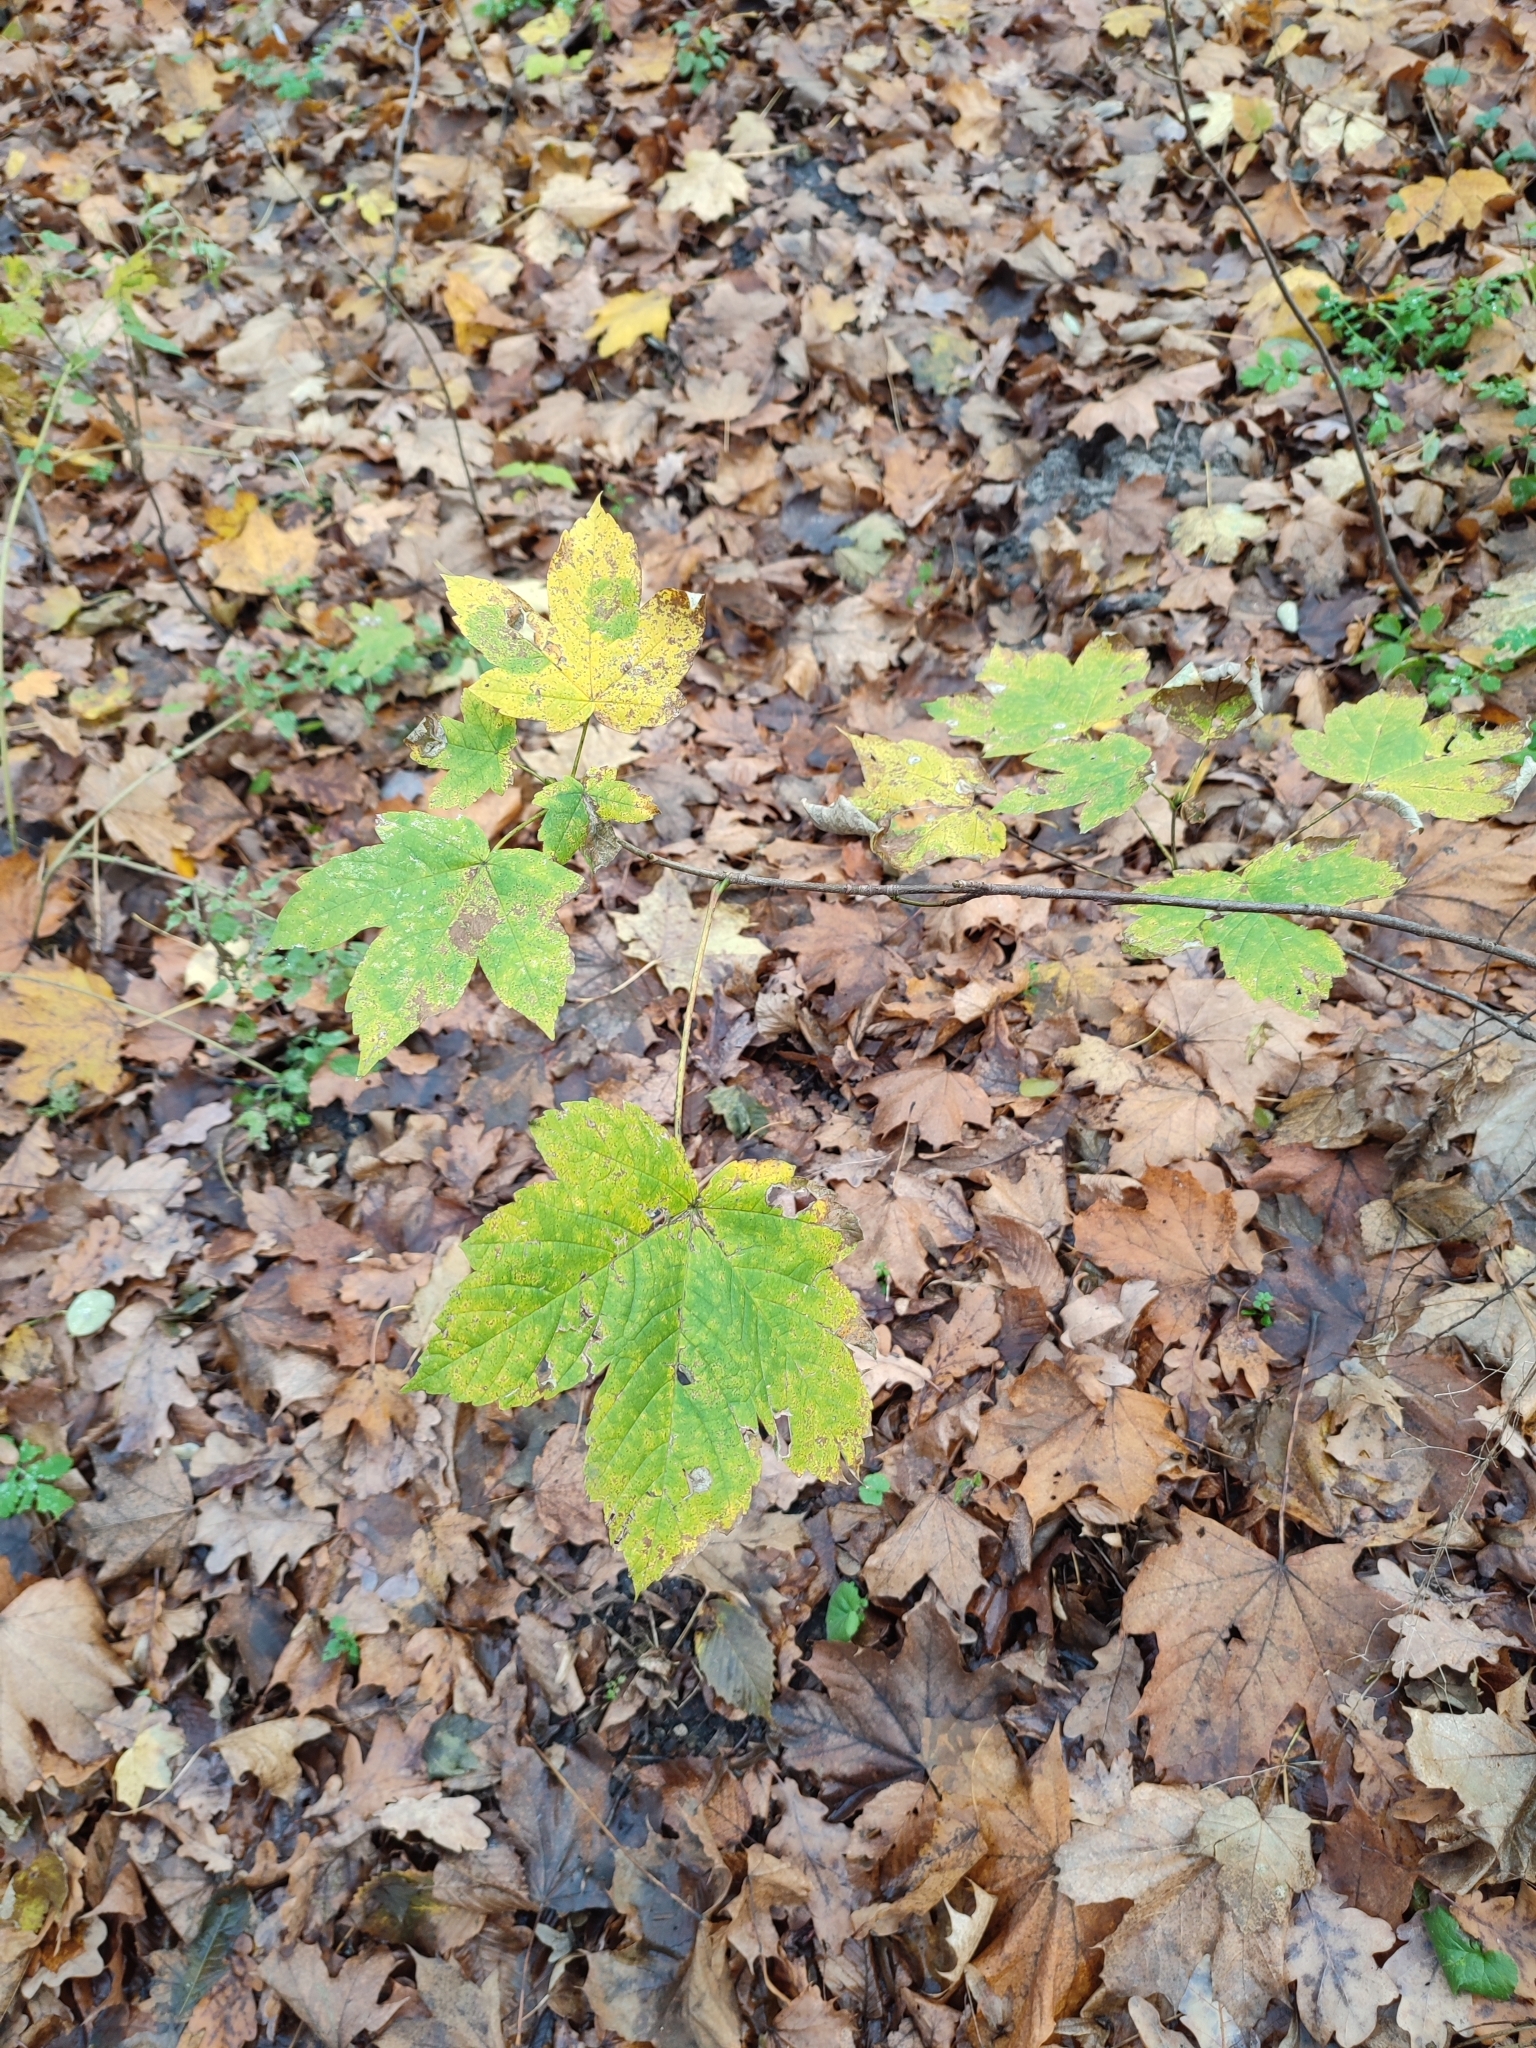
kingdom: Plantae
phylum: Tracheophyta
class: Magnoliopsida
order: Sapindales
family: Sapindaceae
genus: Acer
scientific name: Acer pseudoplatanus
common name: Sycamore
